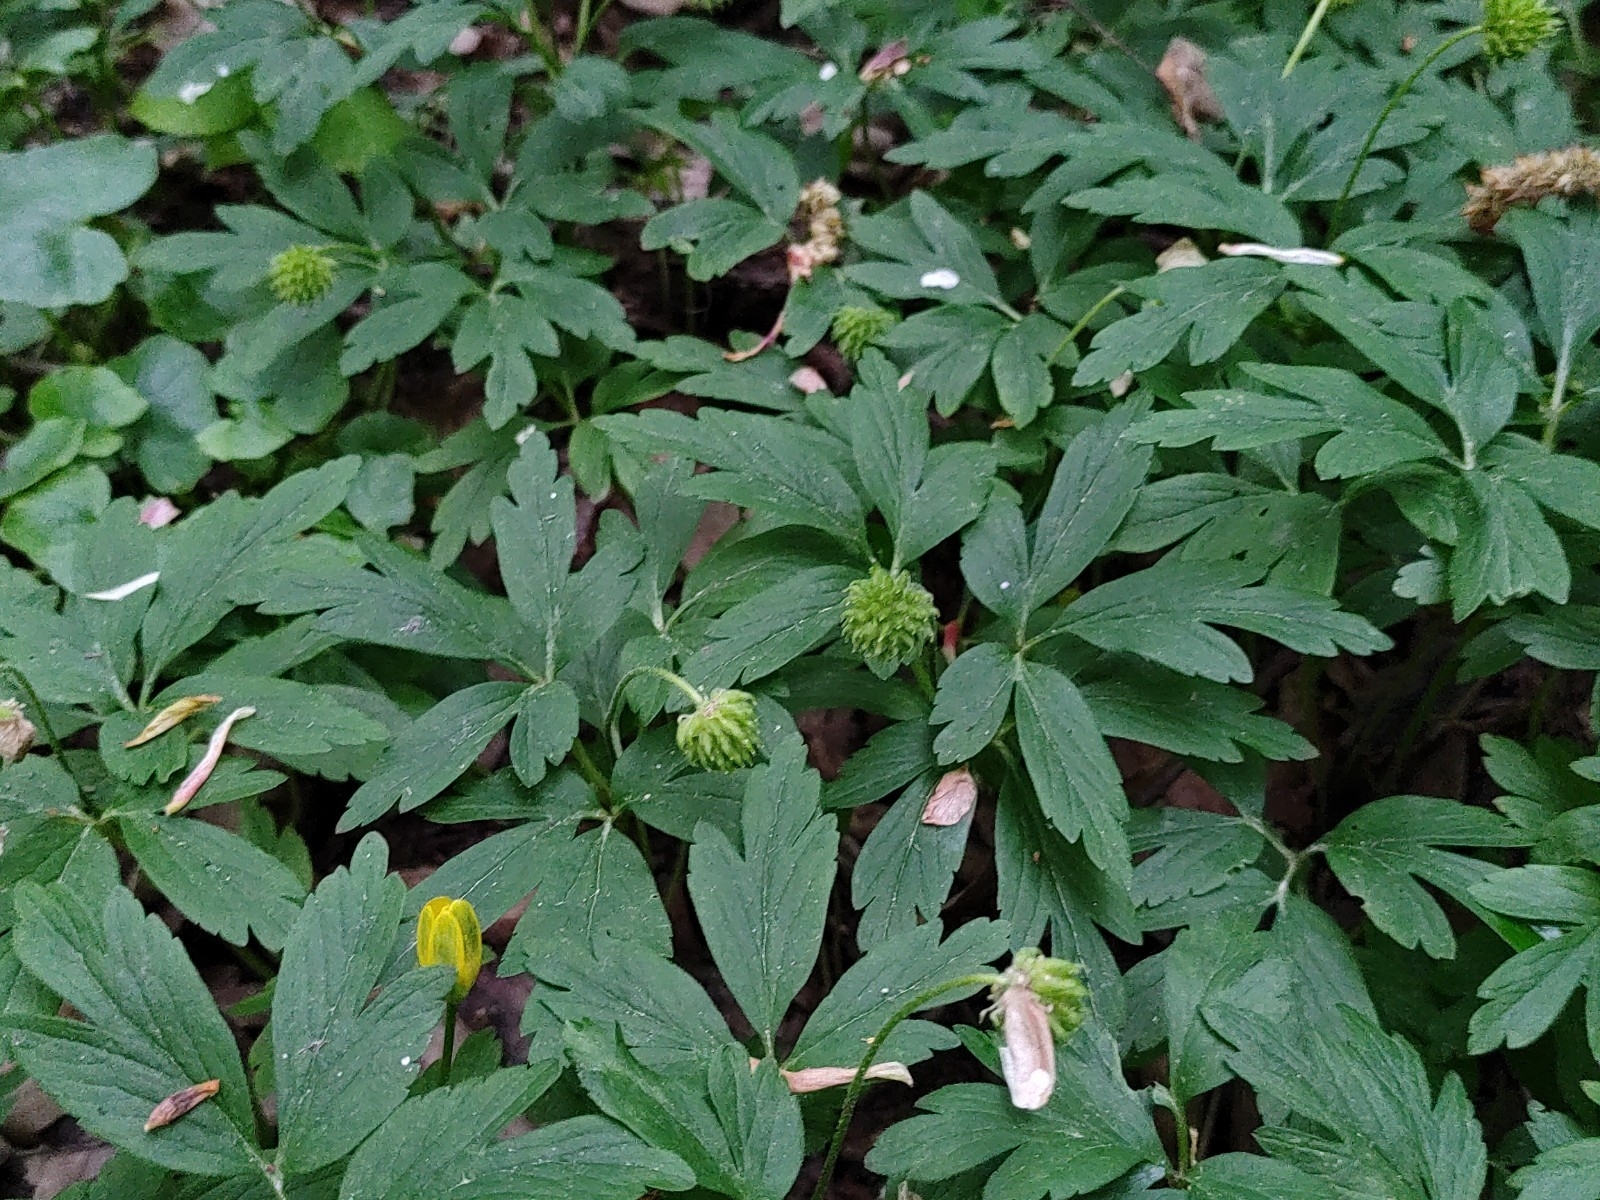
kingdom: Plantae
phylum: Tracheophyta
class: Magnoliopsida
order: Ranunculales
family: Ranunculaceae
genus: Anemone
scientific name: Anemone nemorosa
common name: Wood anemone
